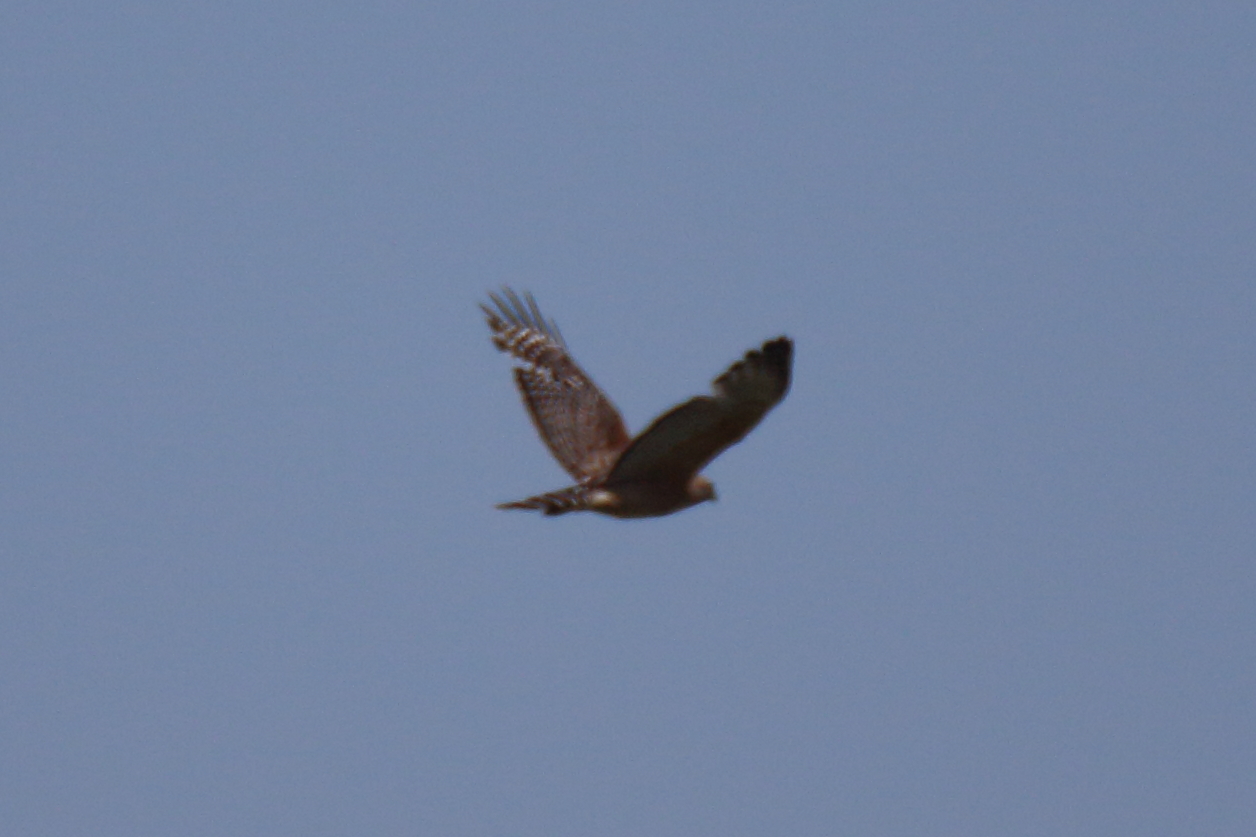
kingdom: Animalia
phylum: Chordata
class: Aves
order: Accipitriformes
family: Accipitridae
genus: Circus
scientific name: Circus cyaneus
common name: Hen harrier
